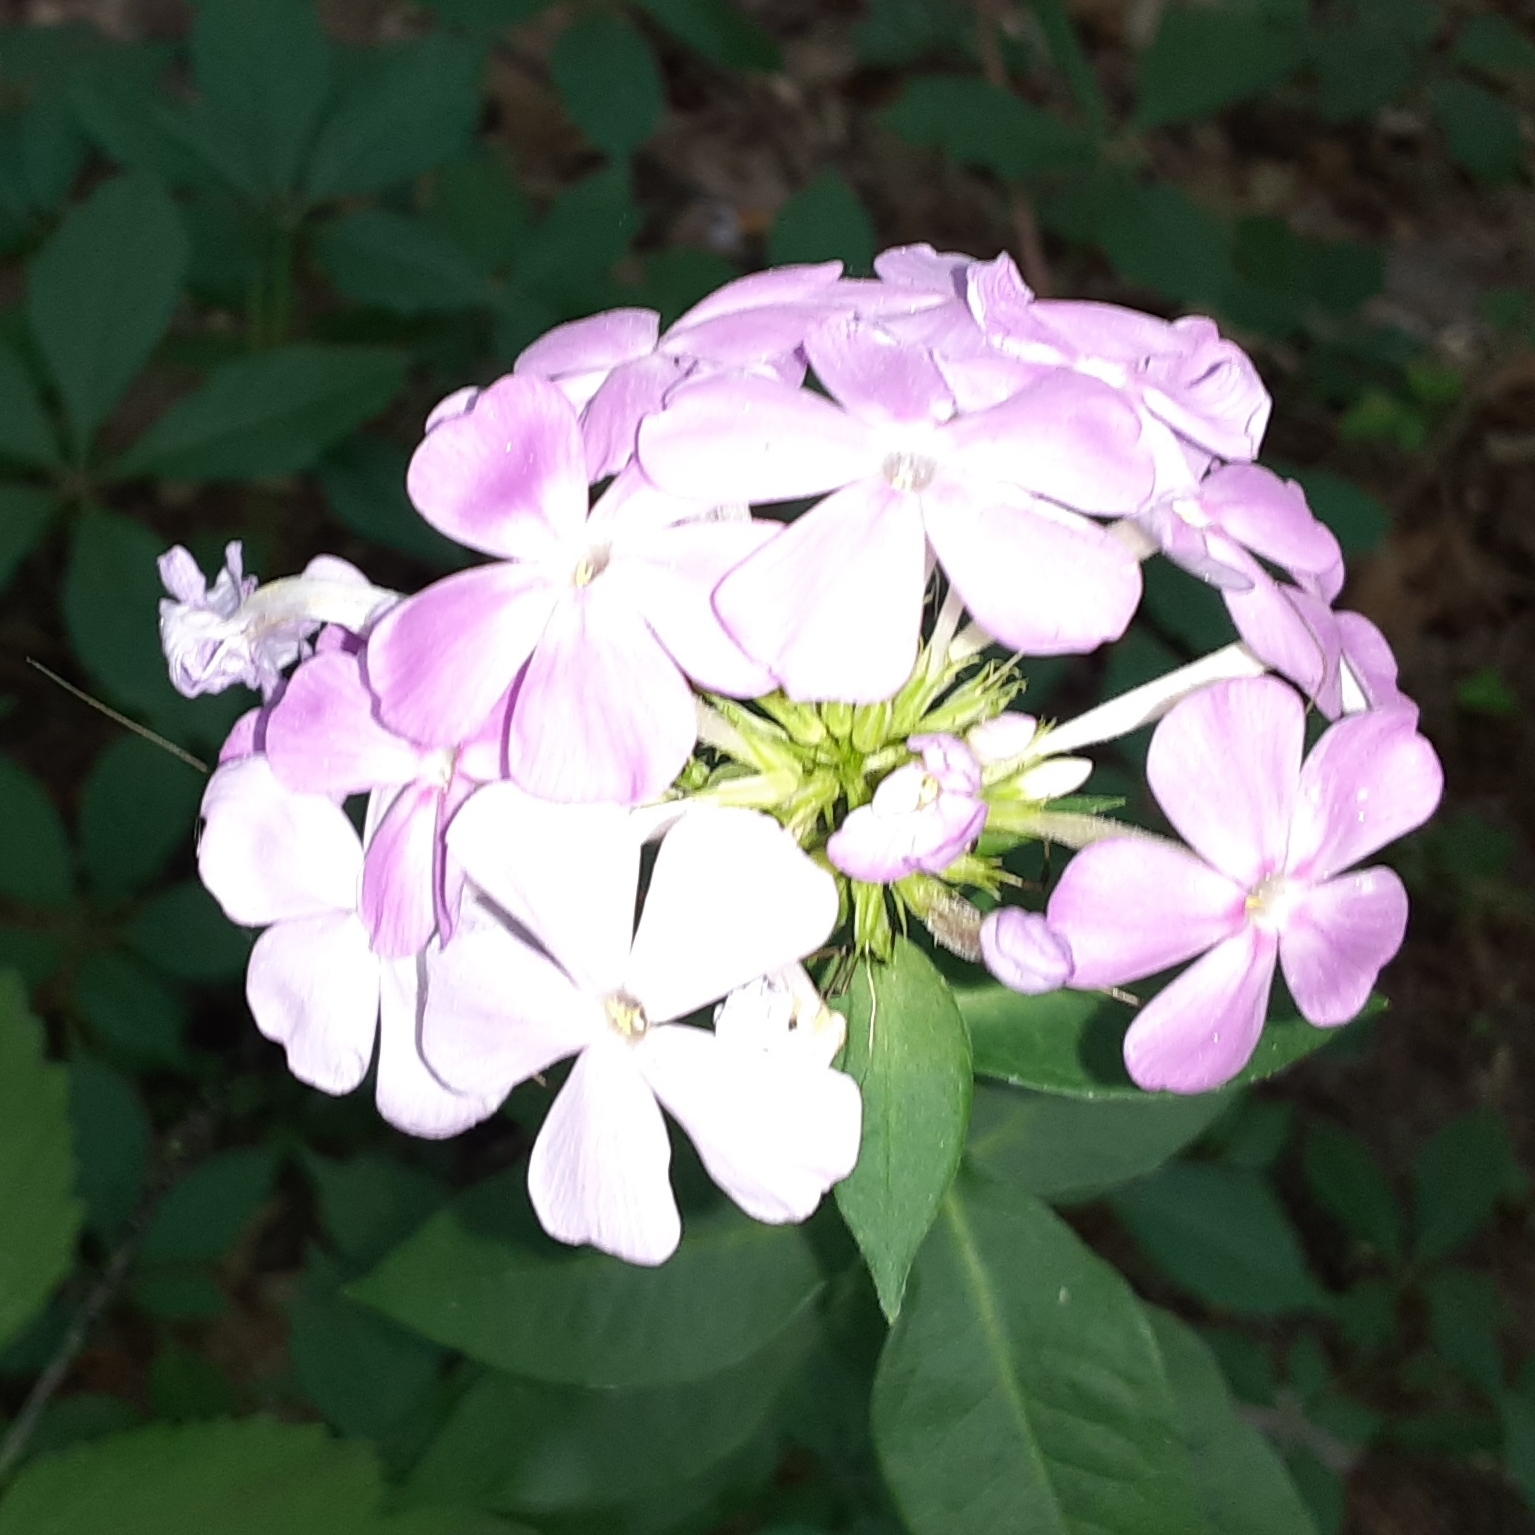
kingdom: Plantae
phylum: Tracheophyta
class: Magnoliopsida
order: Ericales
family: Polemoniaceae
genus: Phlox
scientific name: Phlox paniculata
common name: Fall phlox
